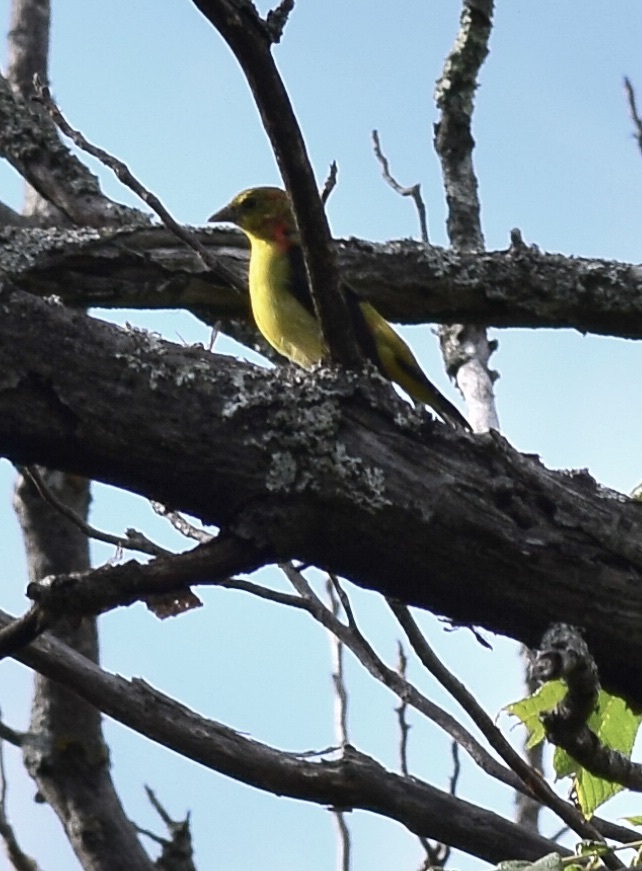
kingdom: Animalia
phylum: Chordata
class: Aves
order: Passeriformes
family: Cardinalidae
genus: Piranga
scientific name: Piranga olivacea
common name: Scarlet tanager
